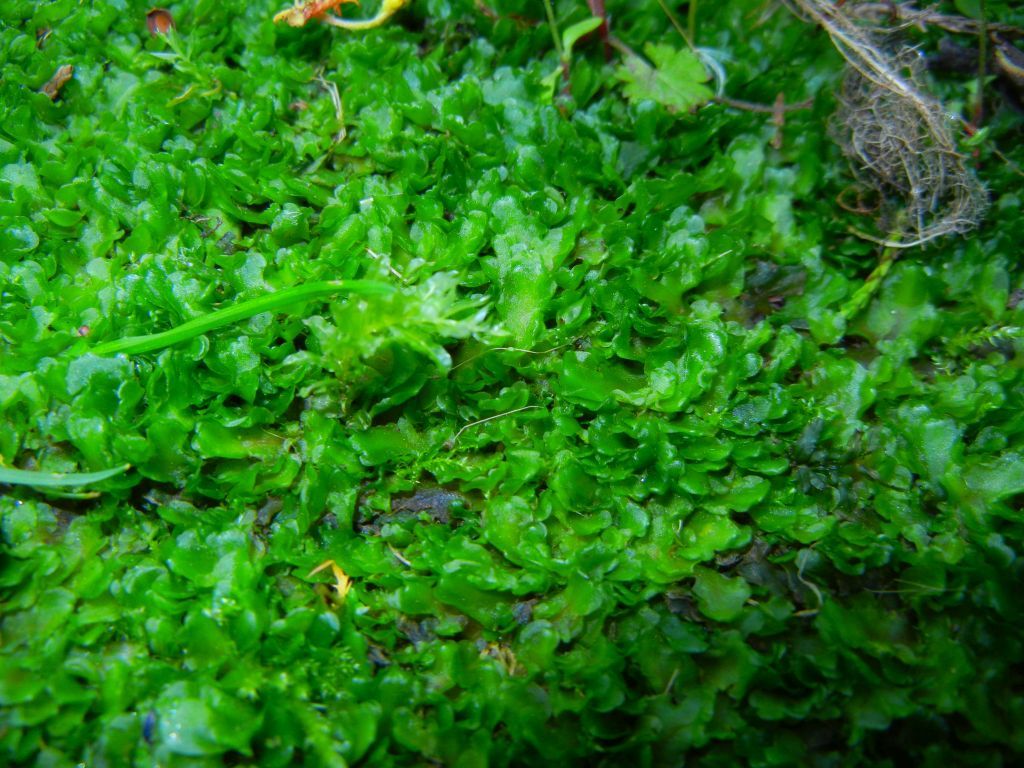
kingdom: Plantae
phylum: Marchantiophyta
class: Jungermanniopsida
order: Metzgeriales
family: Aneuraceae
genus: Aneura
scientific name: Aneura pinguis
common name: Common greasewort
